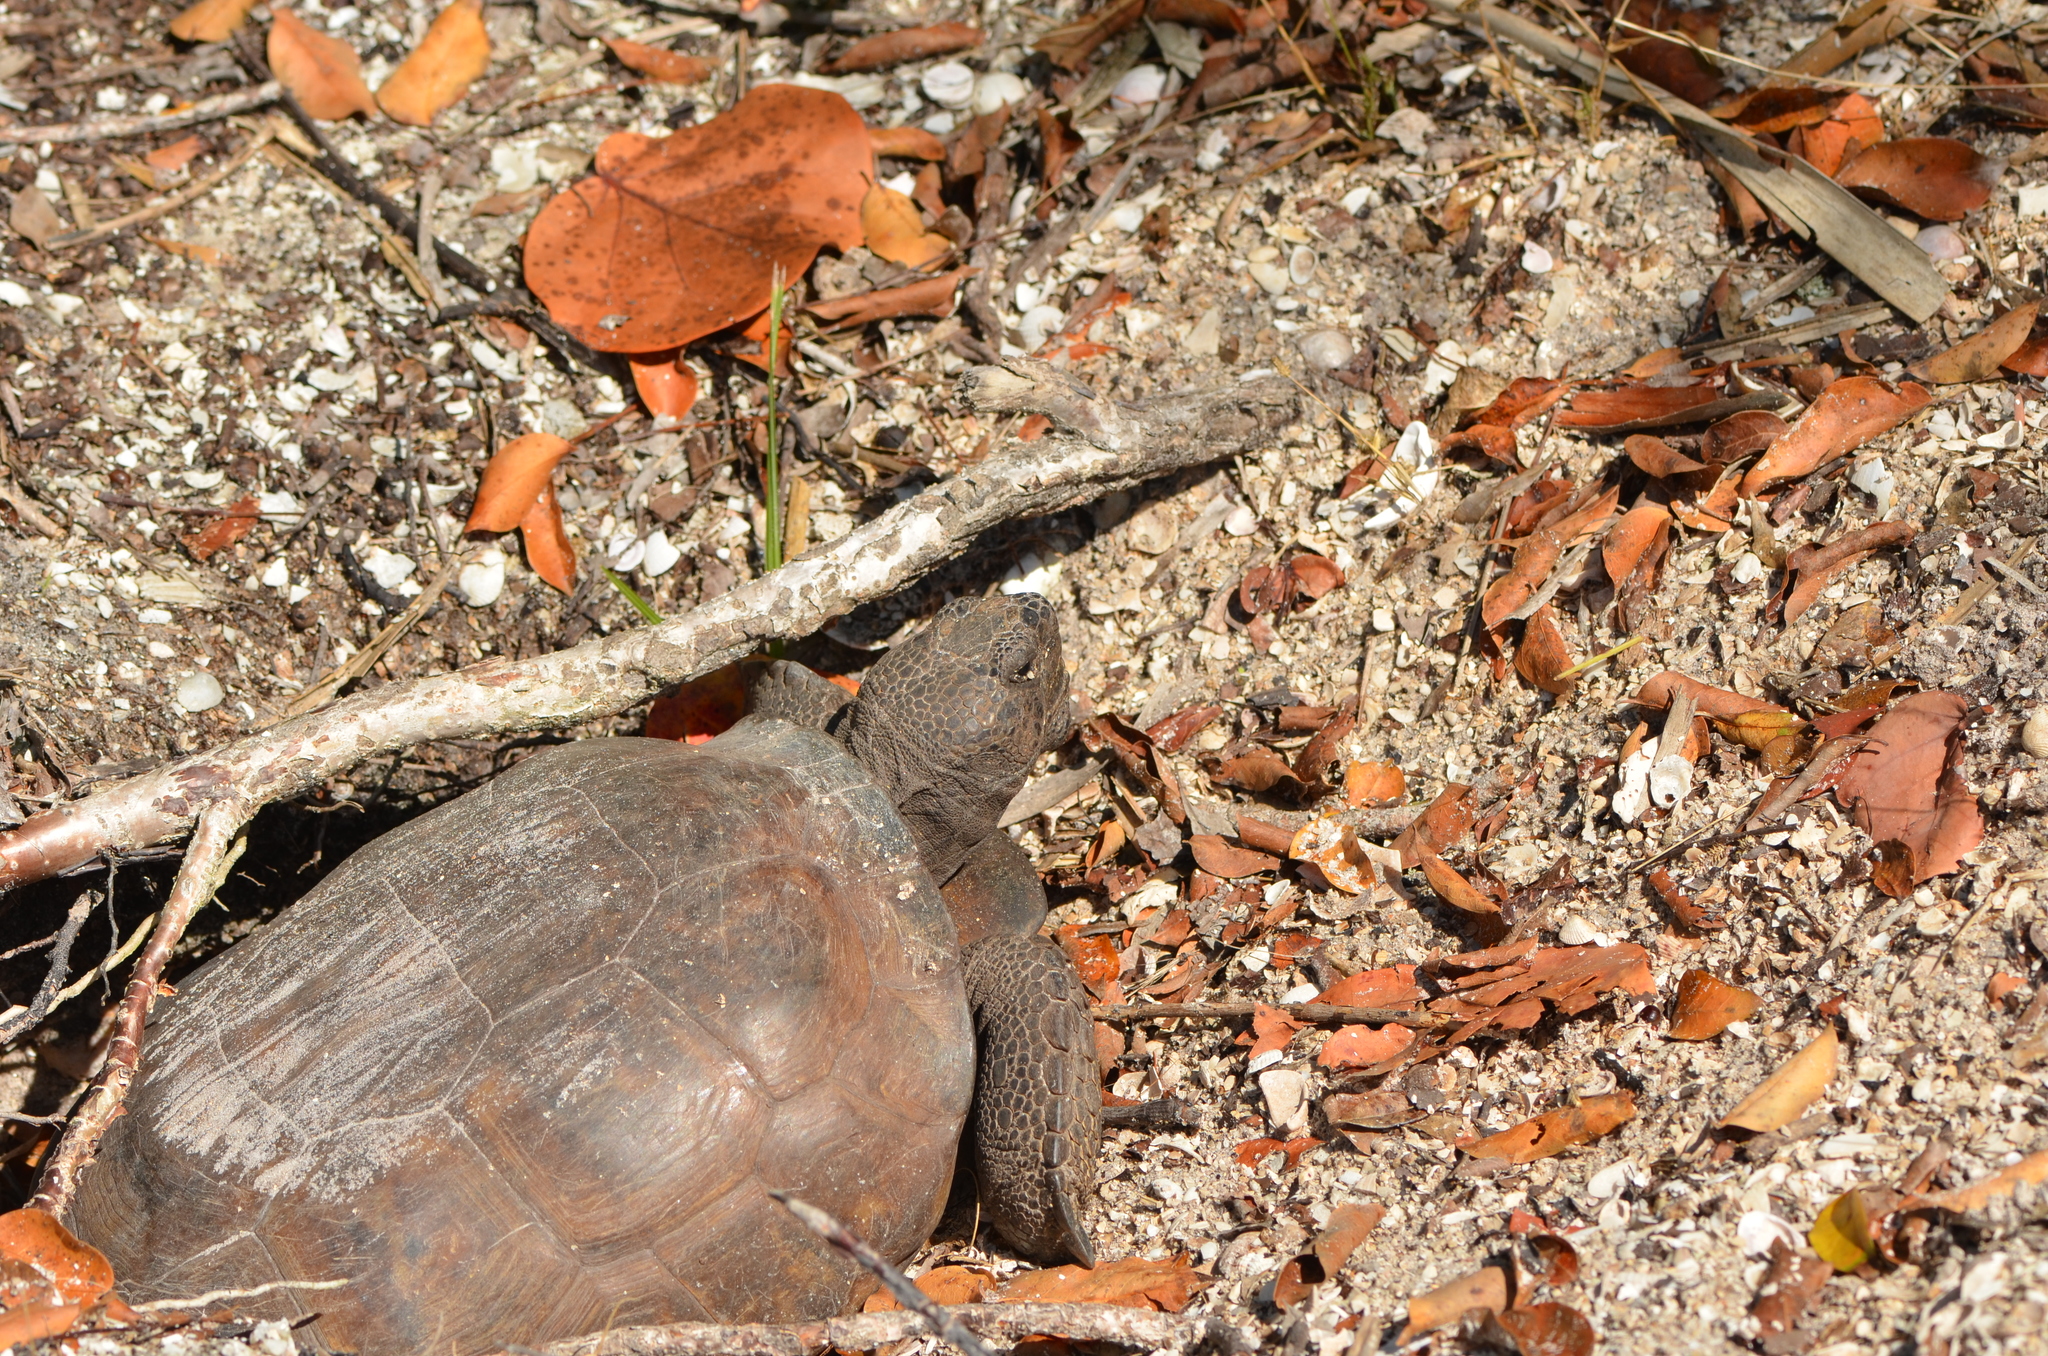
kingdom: Animalia
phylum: Chordata
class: Testudines
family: Testudinidae
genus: Gopherus
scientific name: Gopherus polyphemus
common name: Florida gopher tortoise
